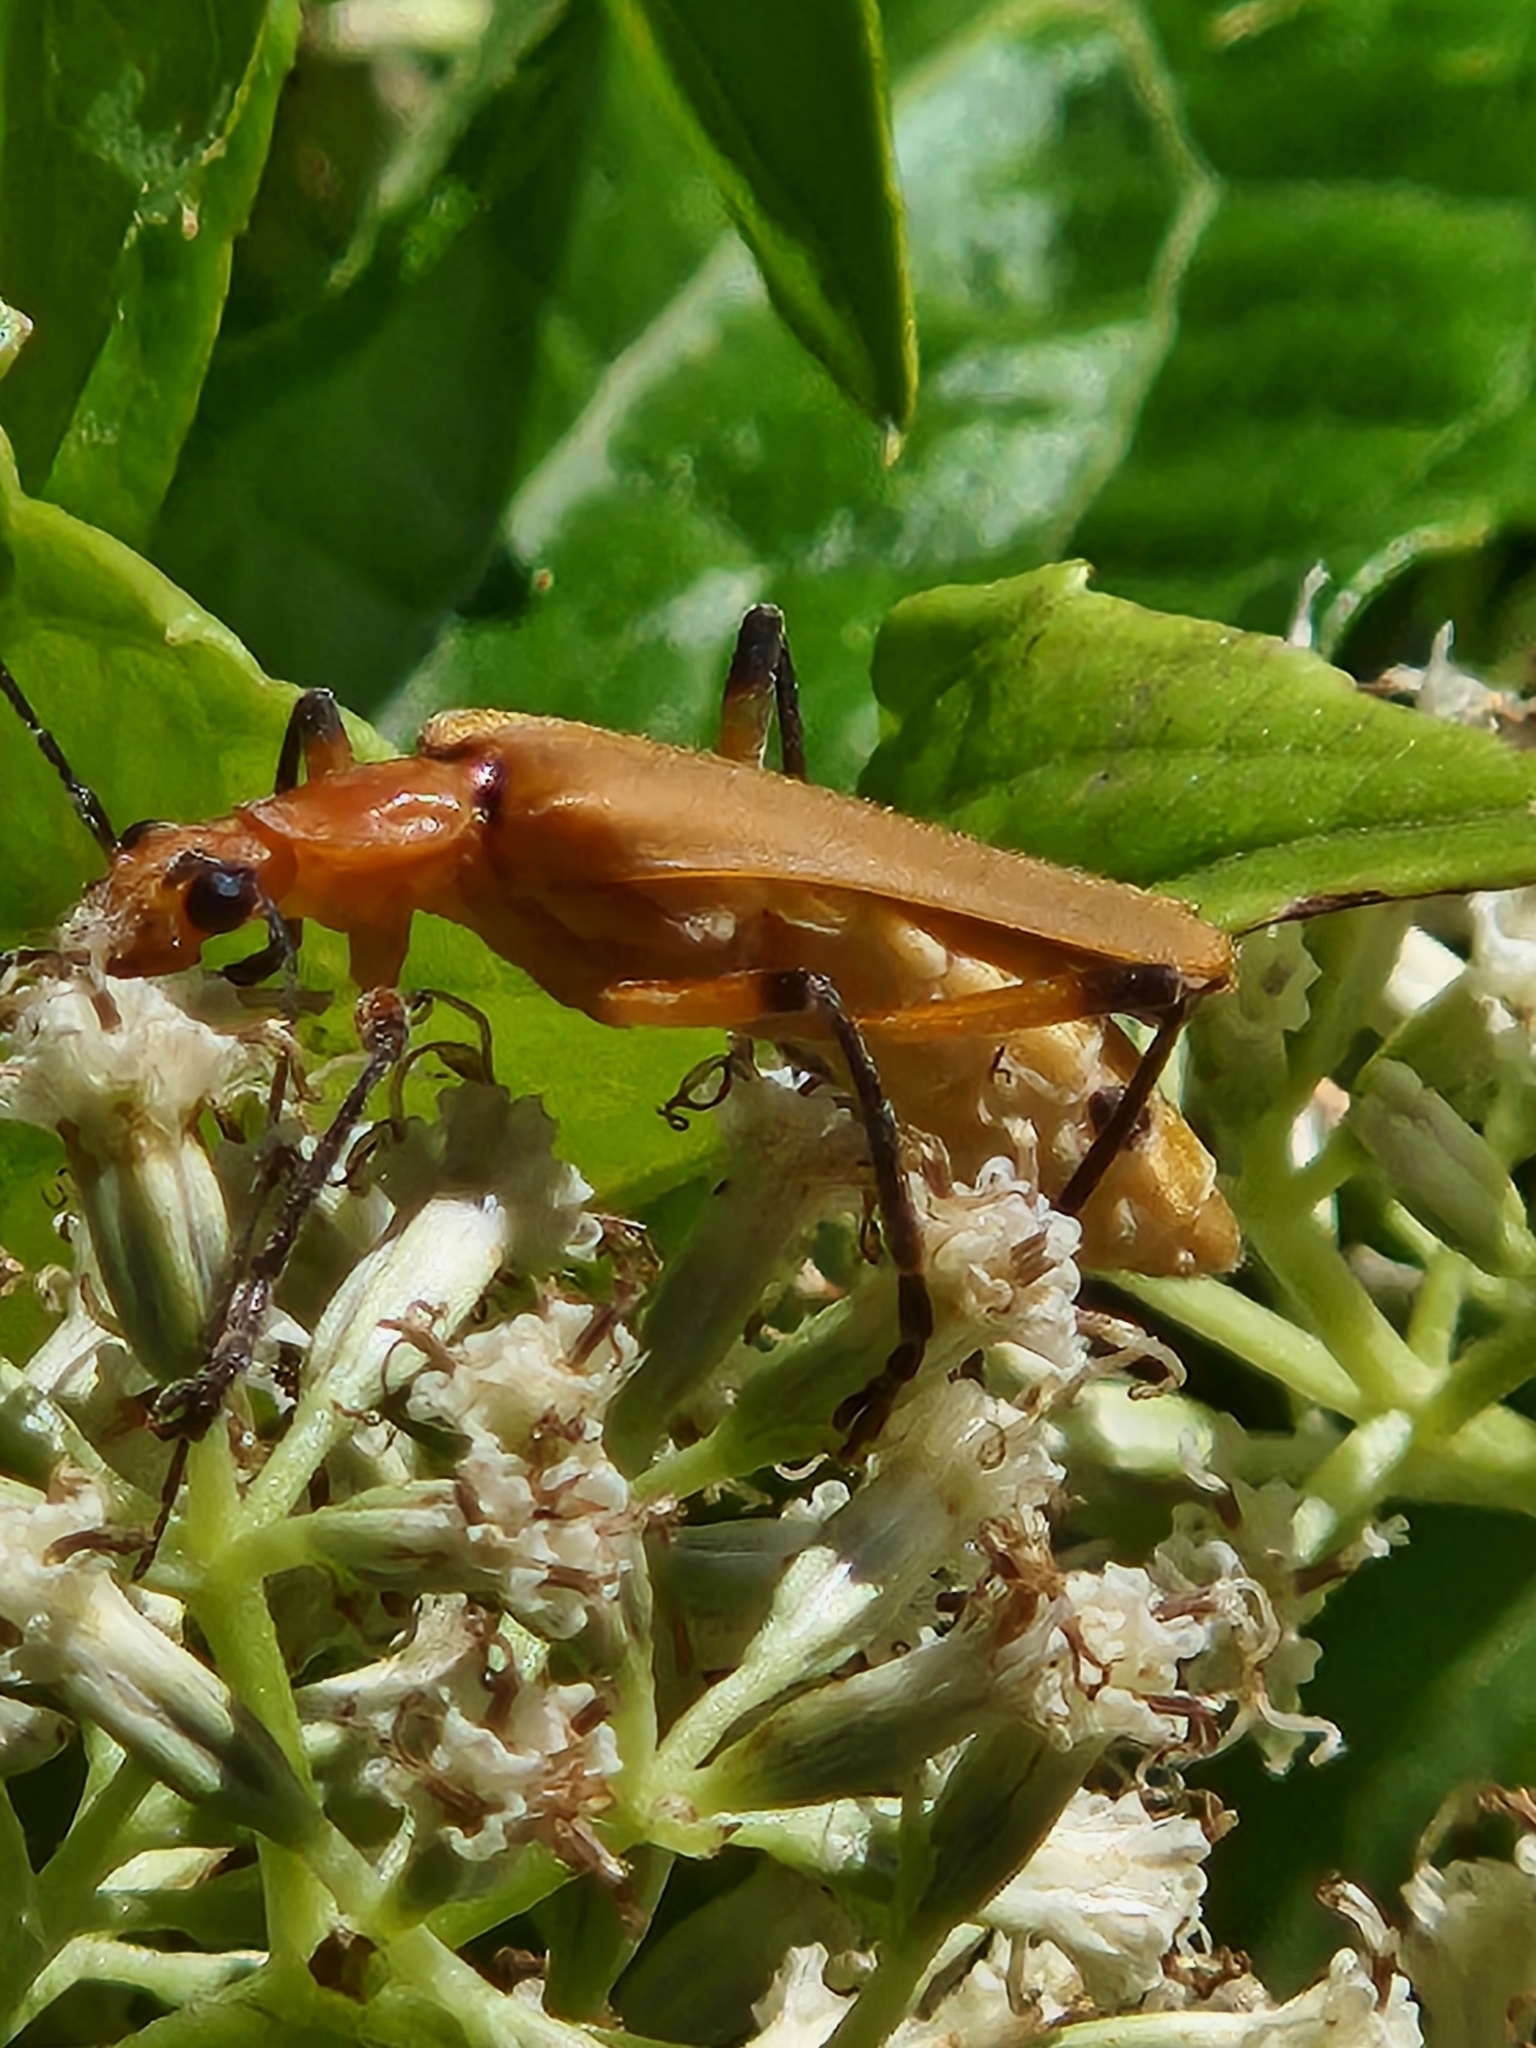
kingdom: Animalia
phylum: Arthropoda
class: Insecta
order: Coleoptera
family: Cantharidae
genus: Chauliognathus
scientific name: Chauliognathus
